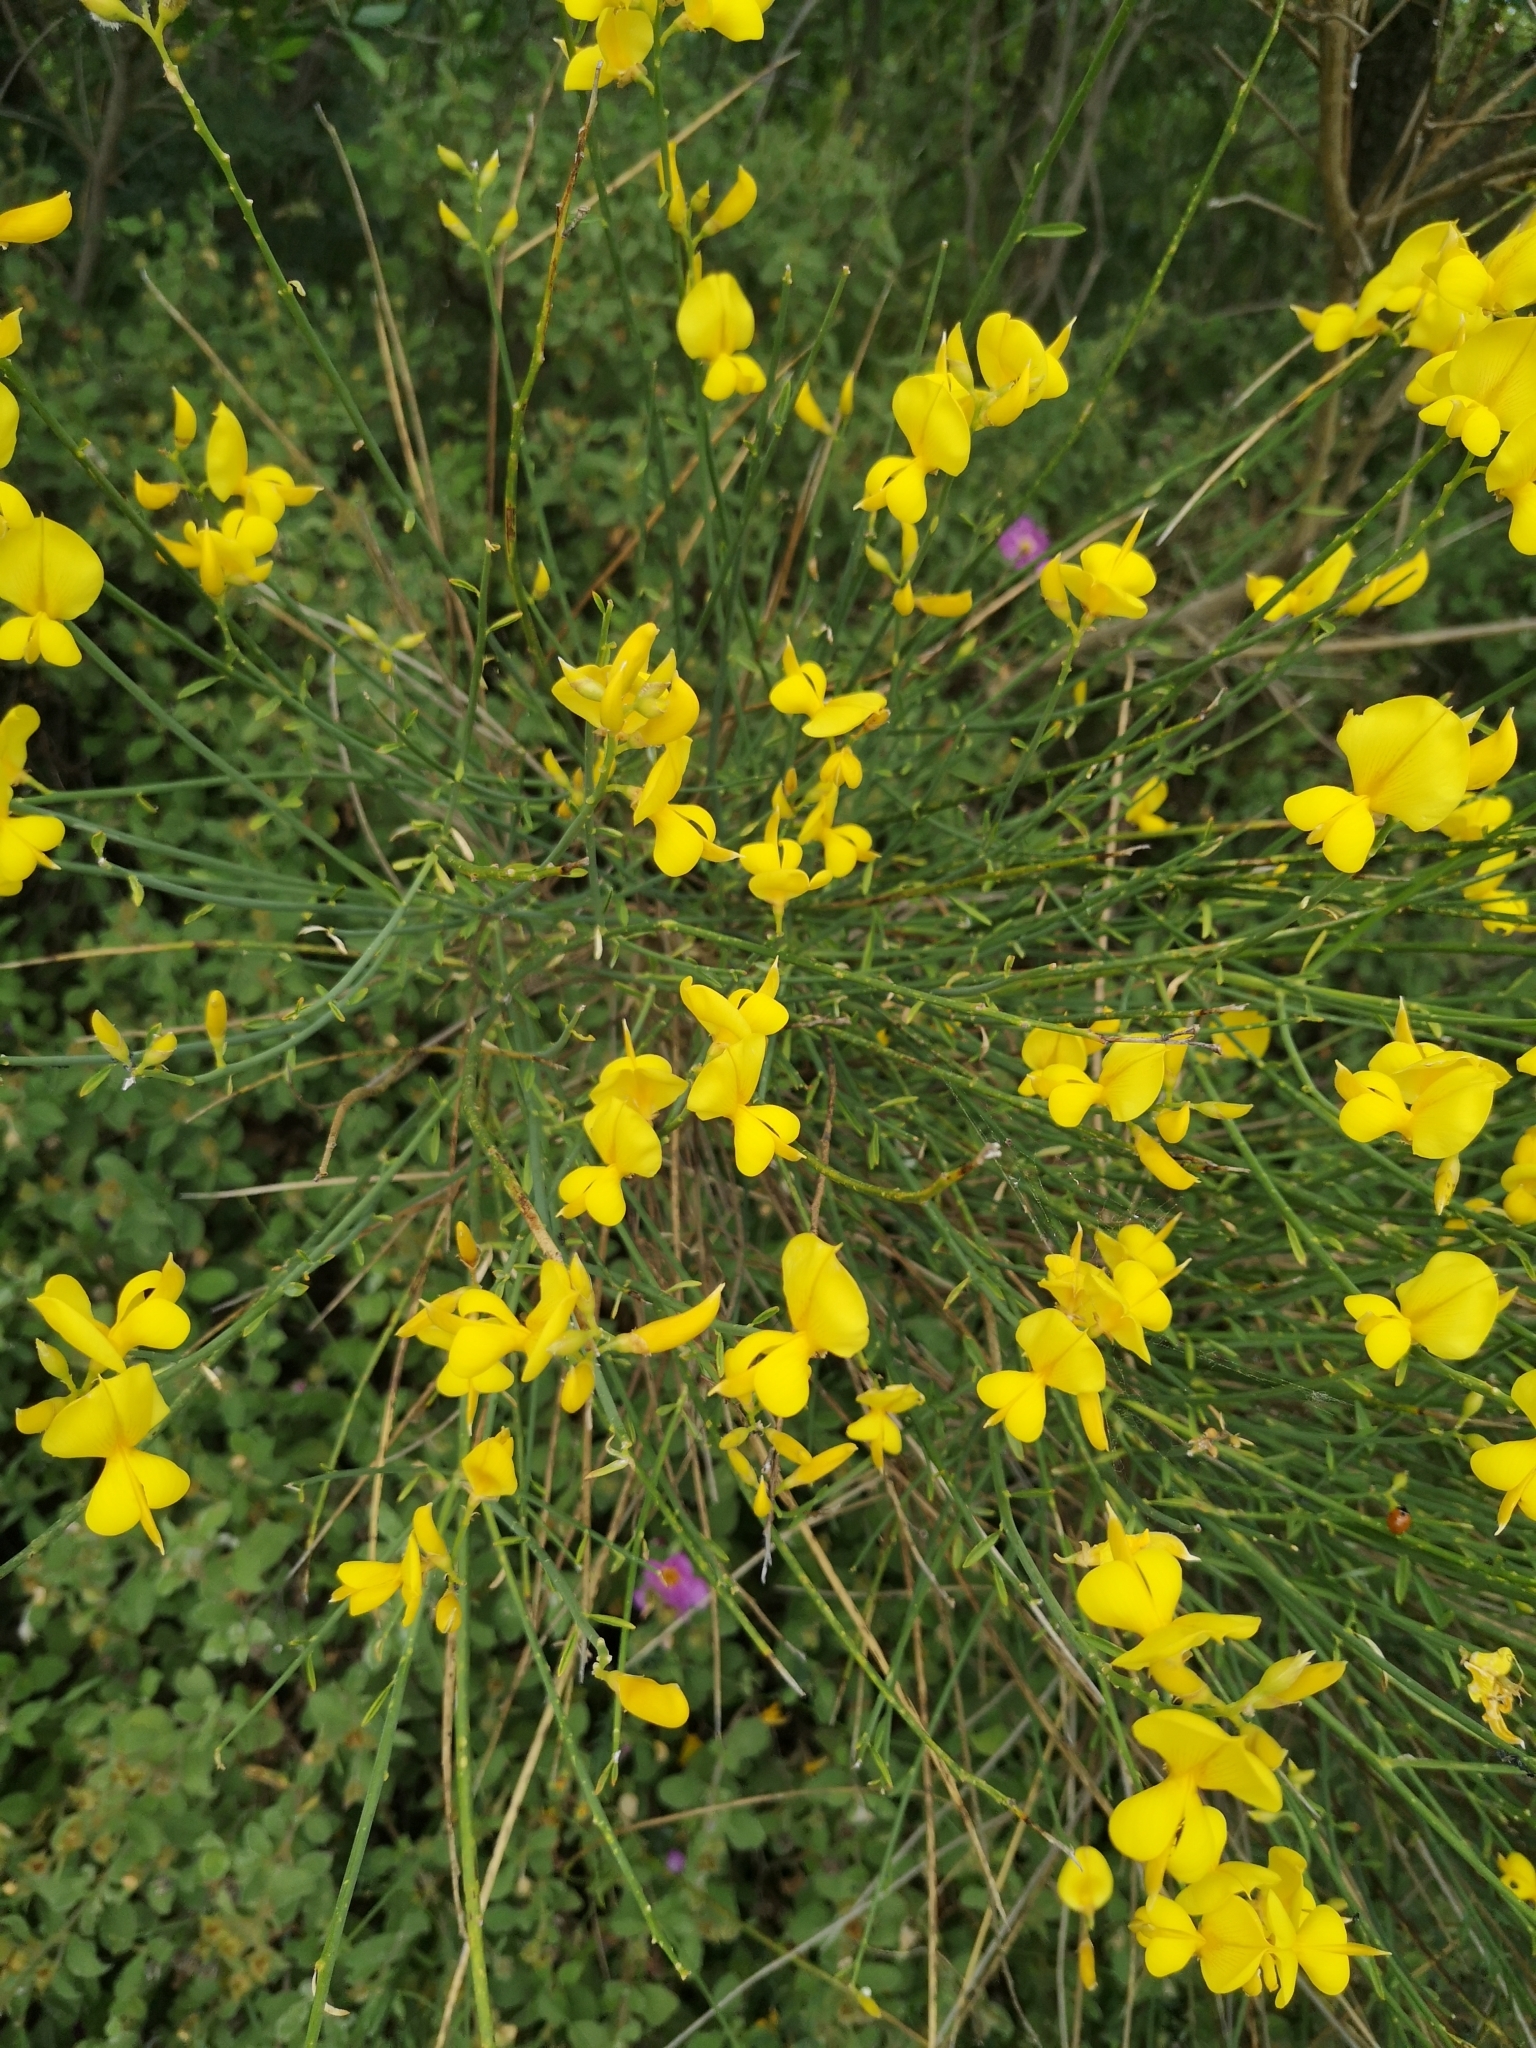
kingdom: Plantae
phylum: Tracheophyta
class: Magnoliopsida
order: Fabales
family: Fabaceae
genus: Spartium
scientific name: Spartium junceum
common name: Spanish broom
